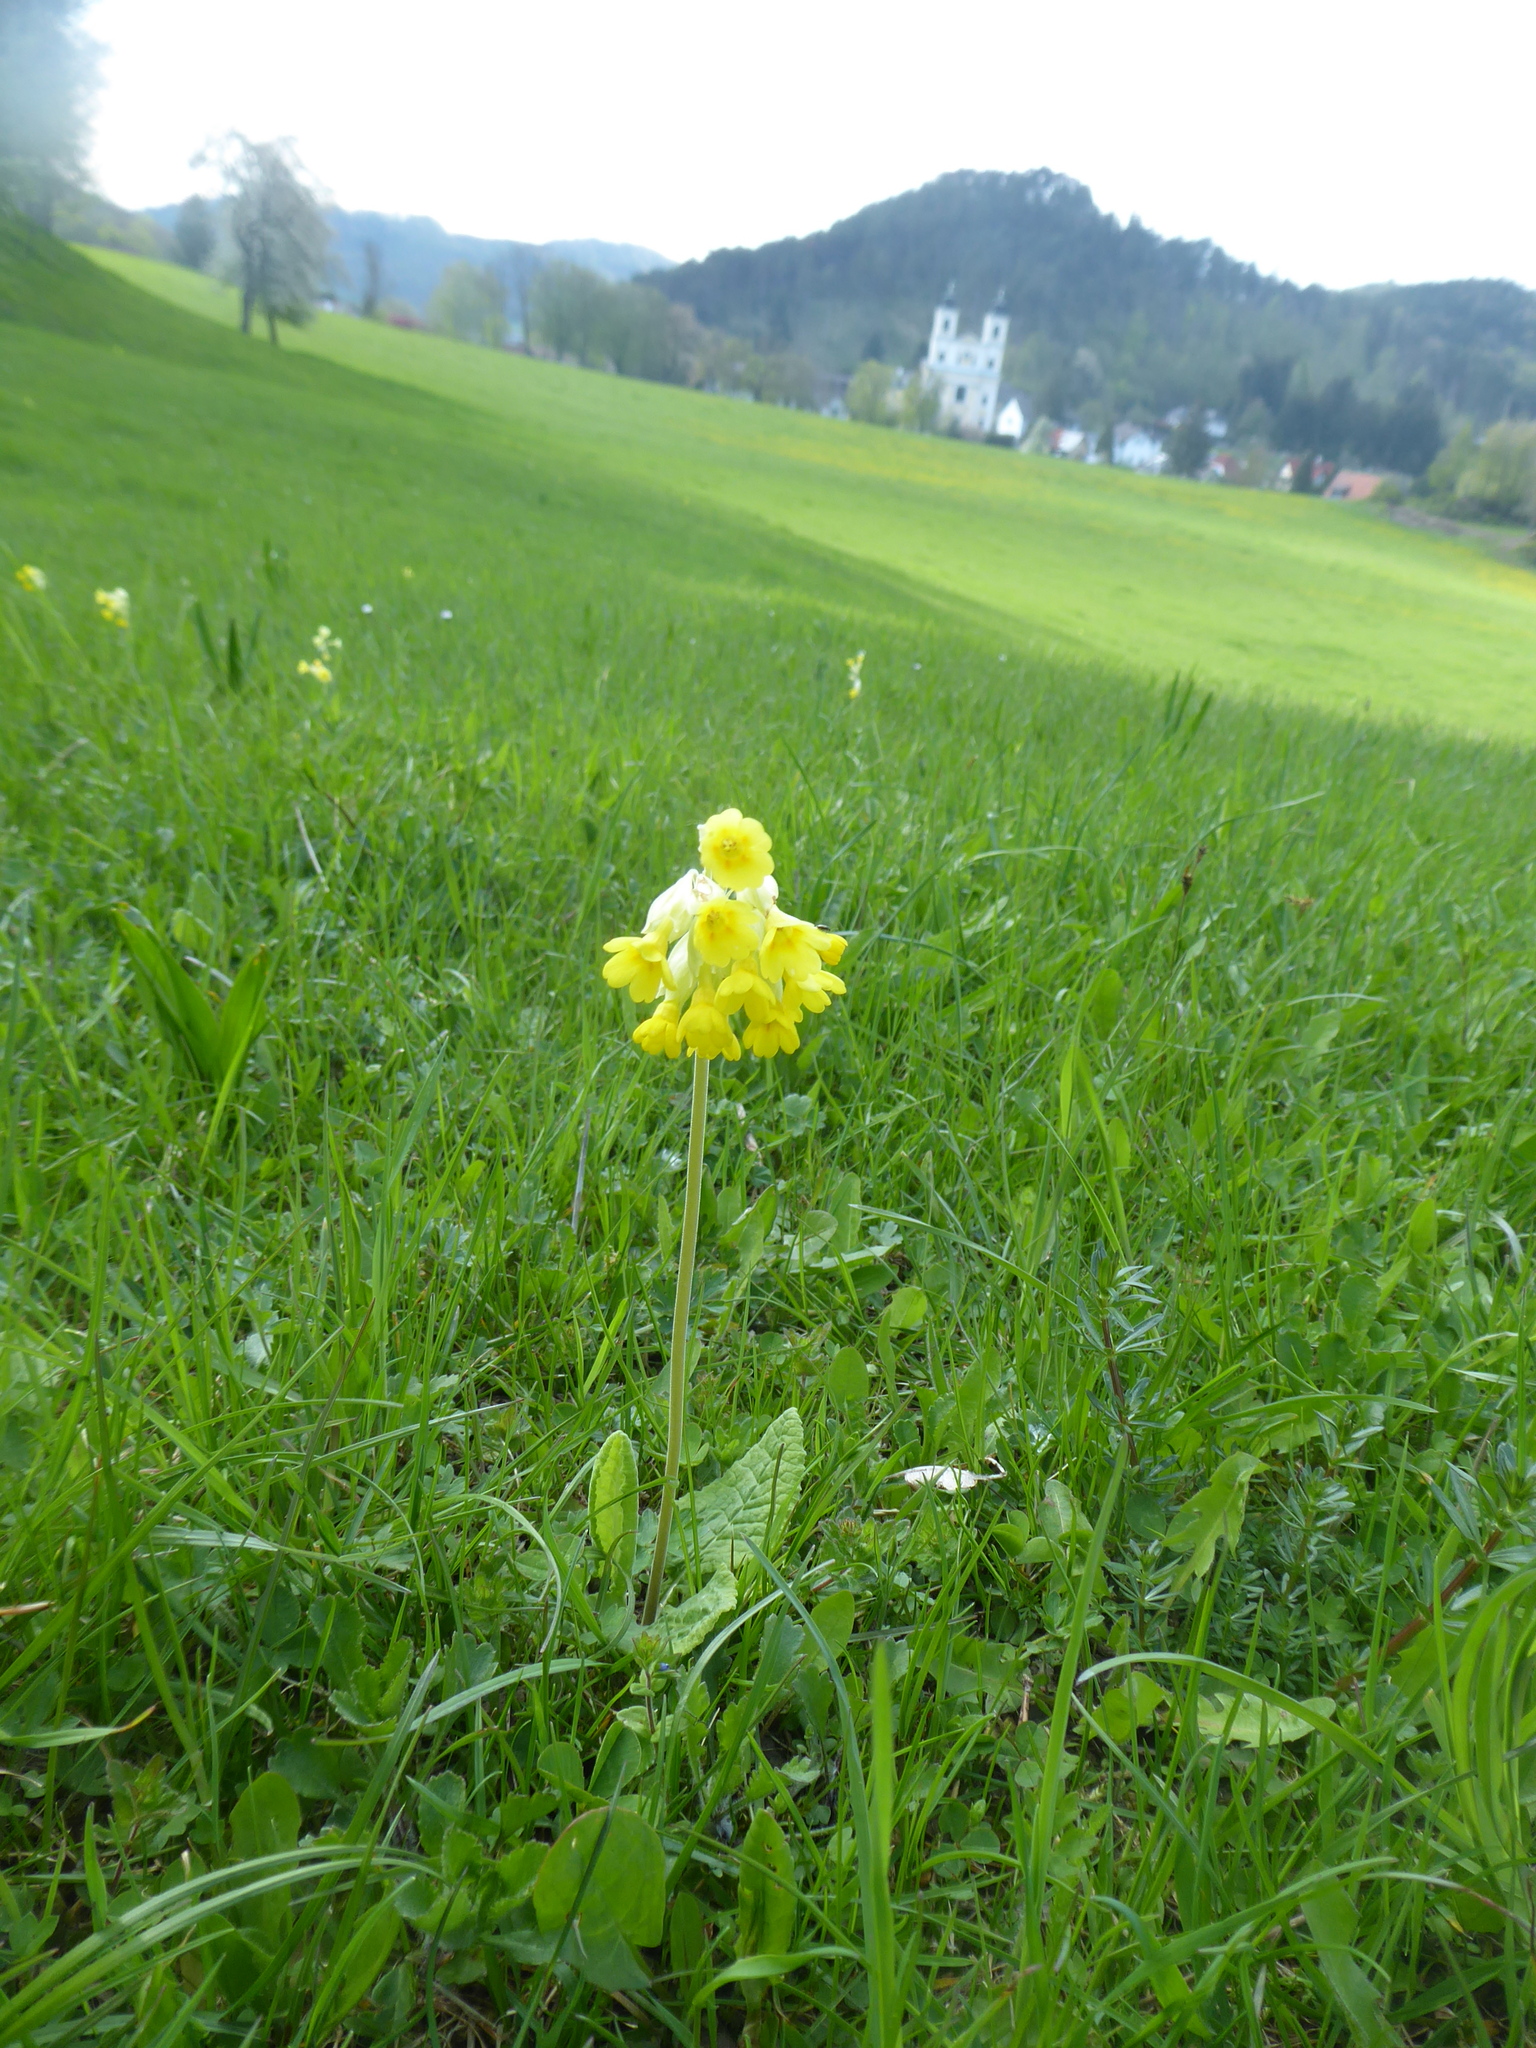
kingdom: Plantae
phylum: Tracheophyta
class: Magnoliopsida
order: Ericales
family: Primulaceae
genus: Primula
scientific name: Primula veris
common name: Cowslip
